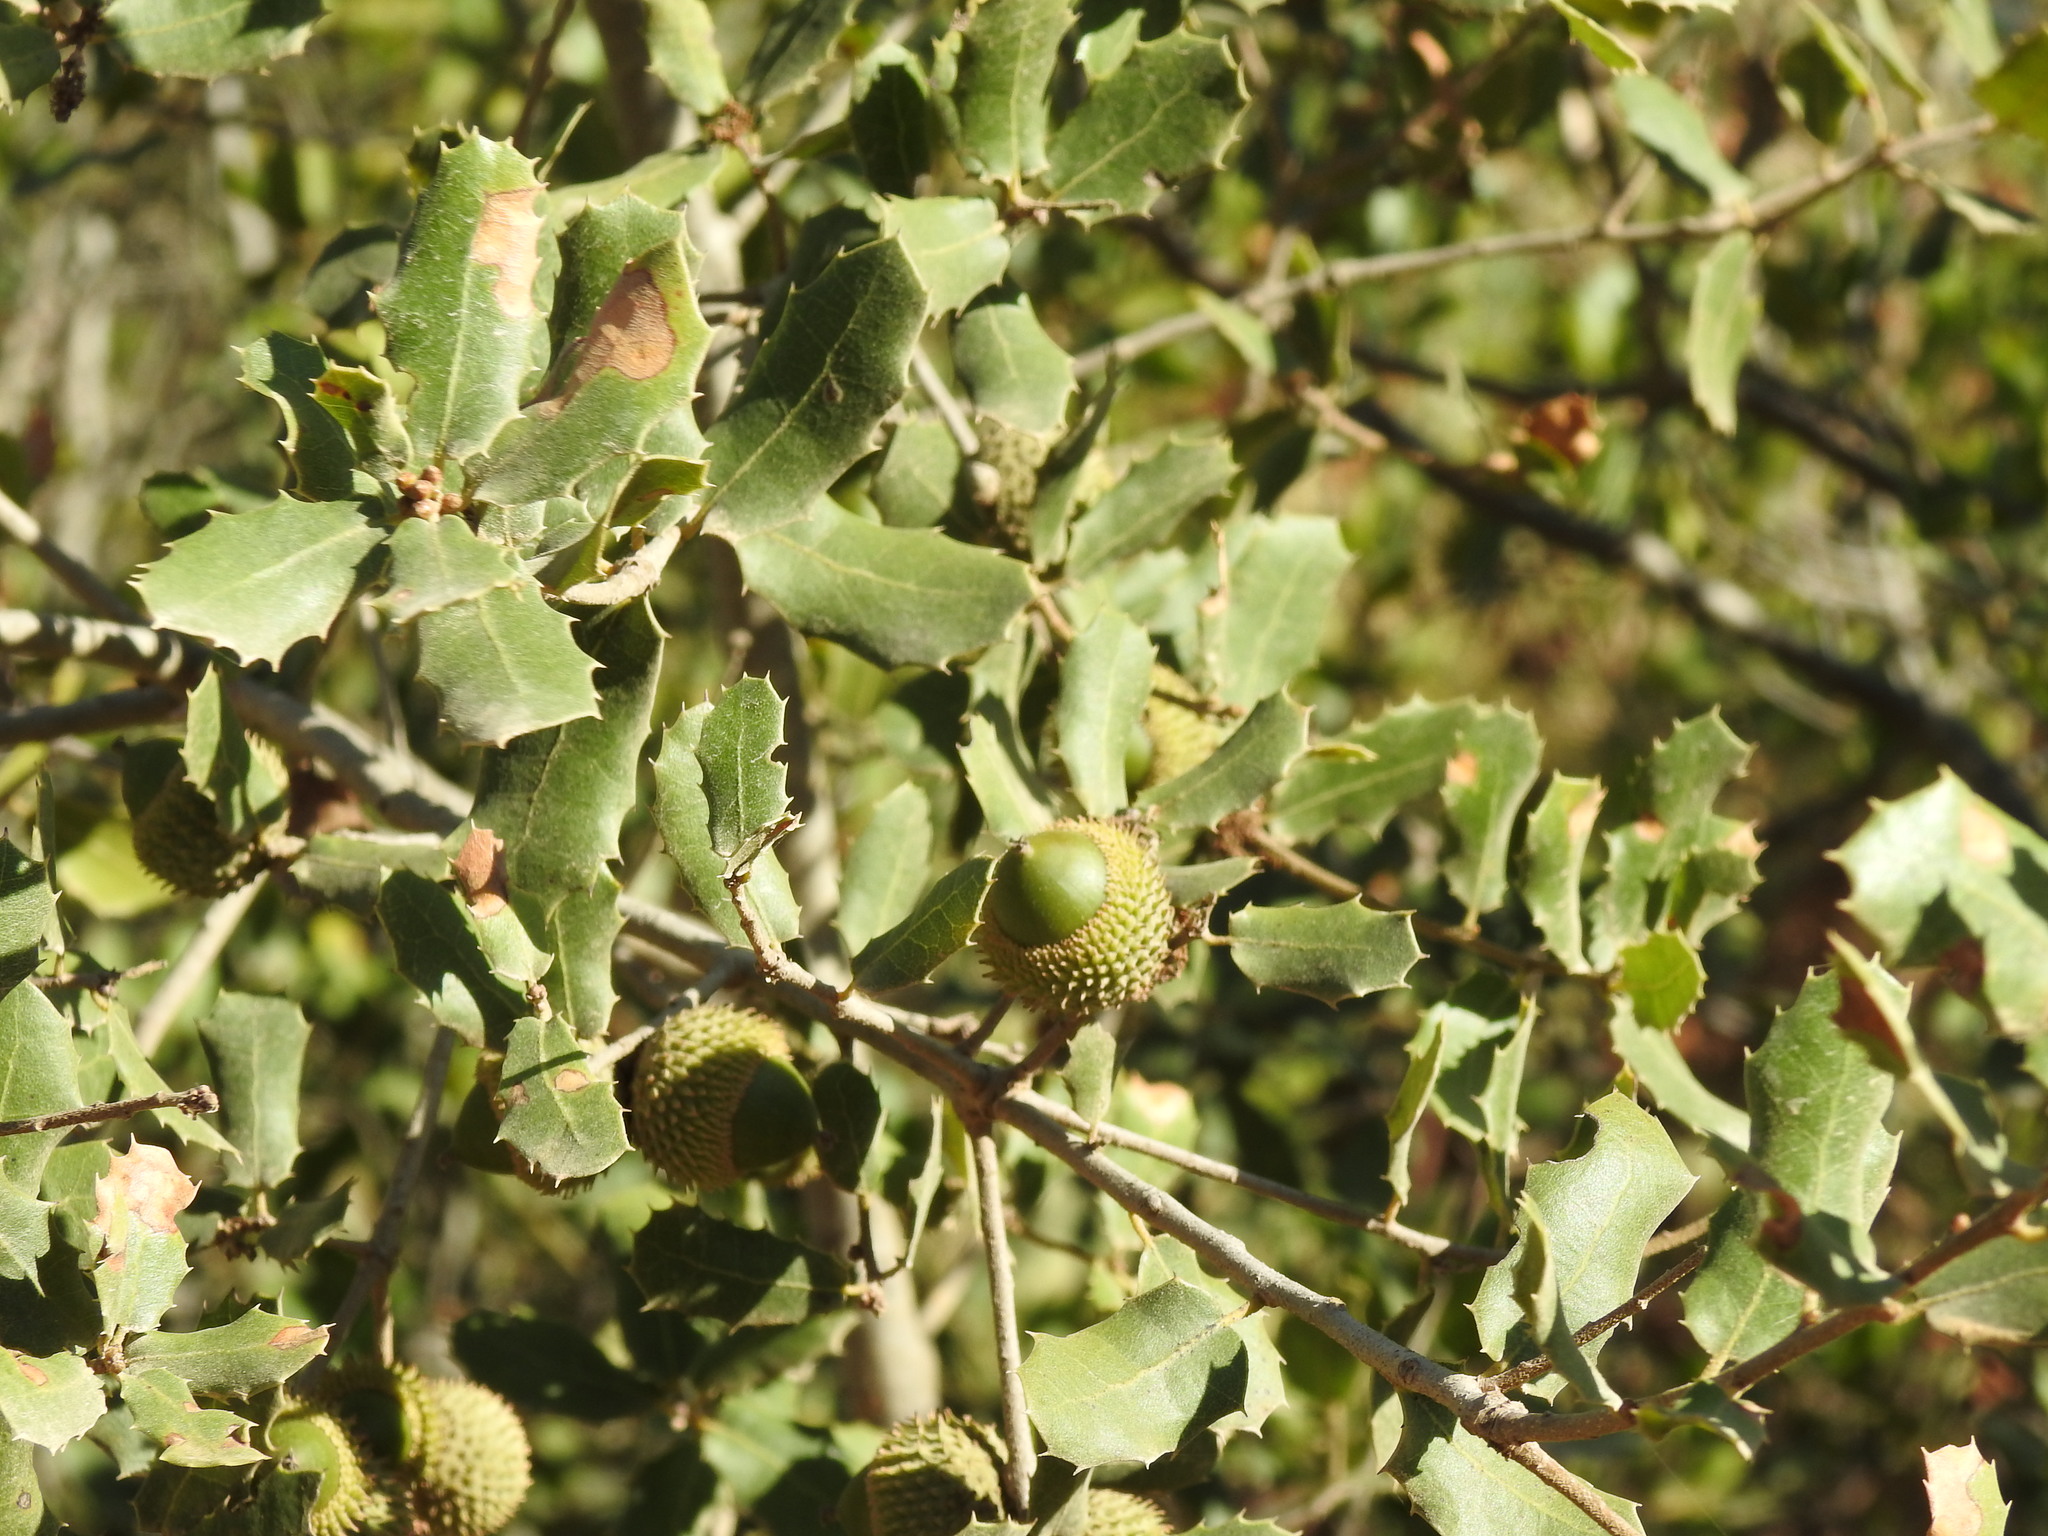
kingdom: Plantae
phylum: Tracheophyta
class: Magnoliopsida
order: Fagales
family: Fagaceae
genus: Quercus
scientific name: Quercus coccifera
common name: Kermes oak
